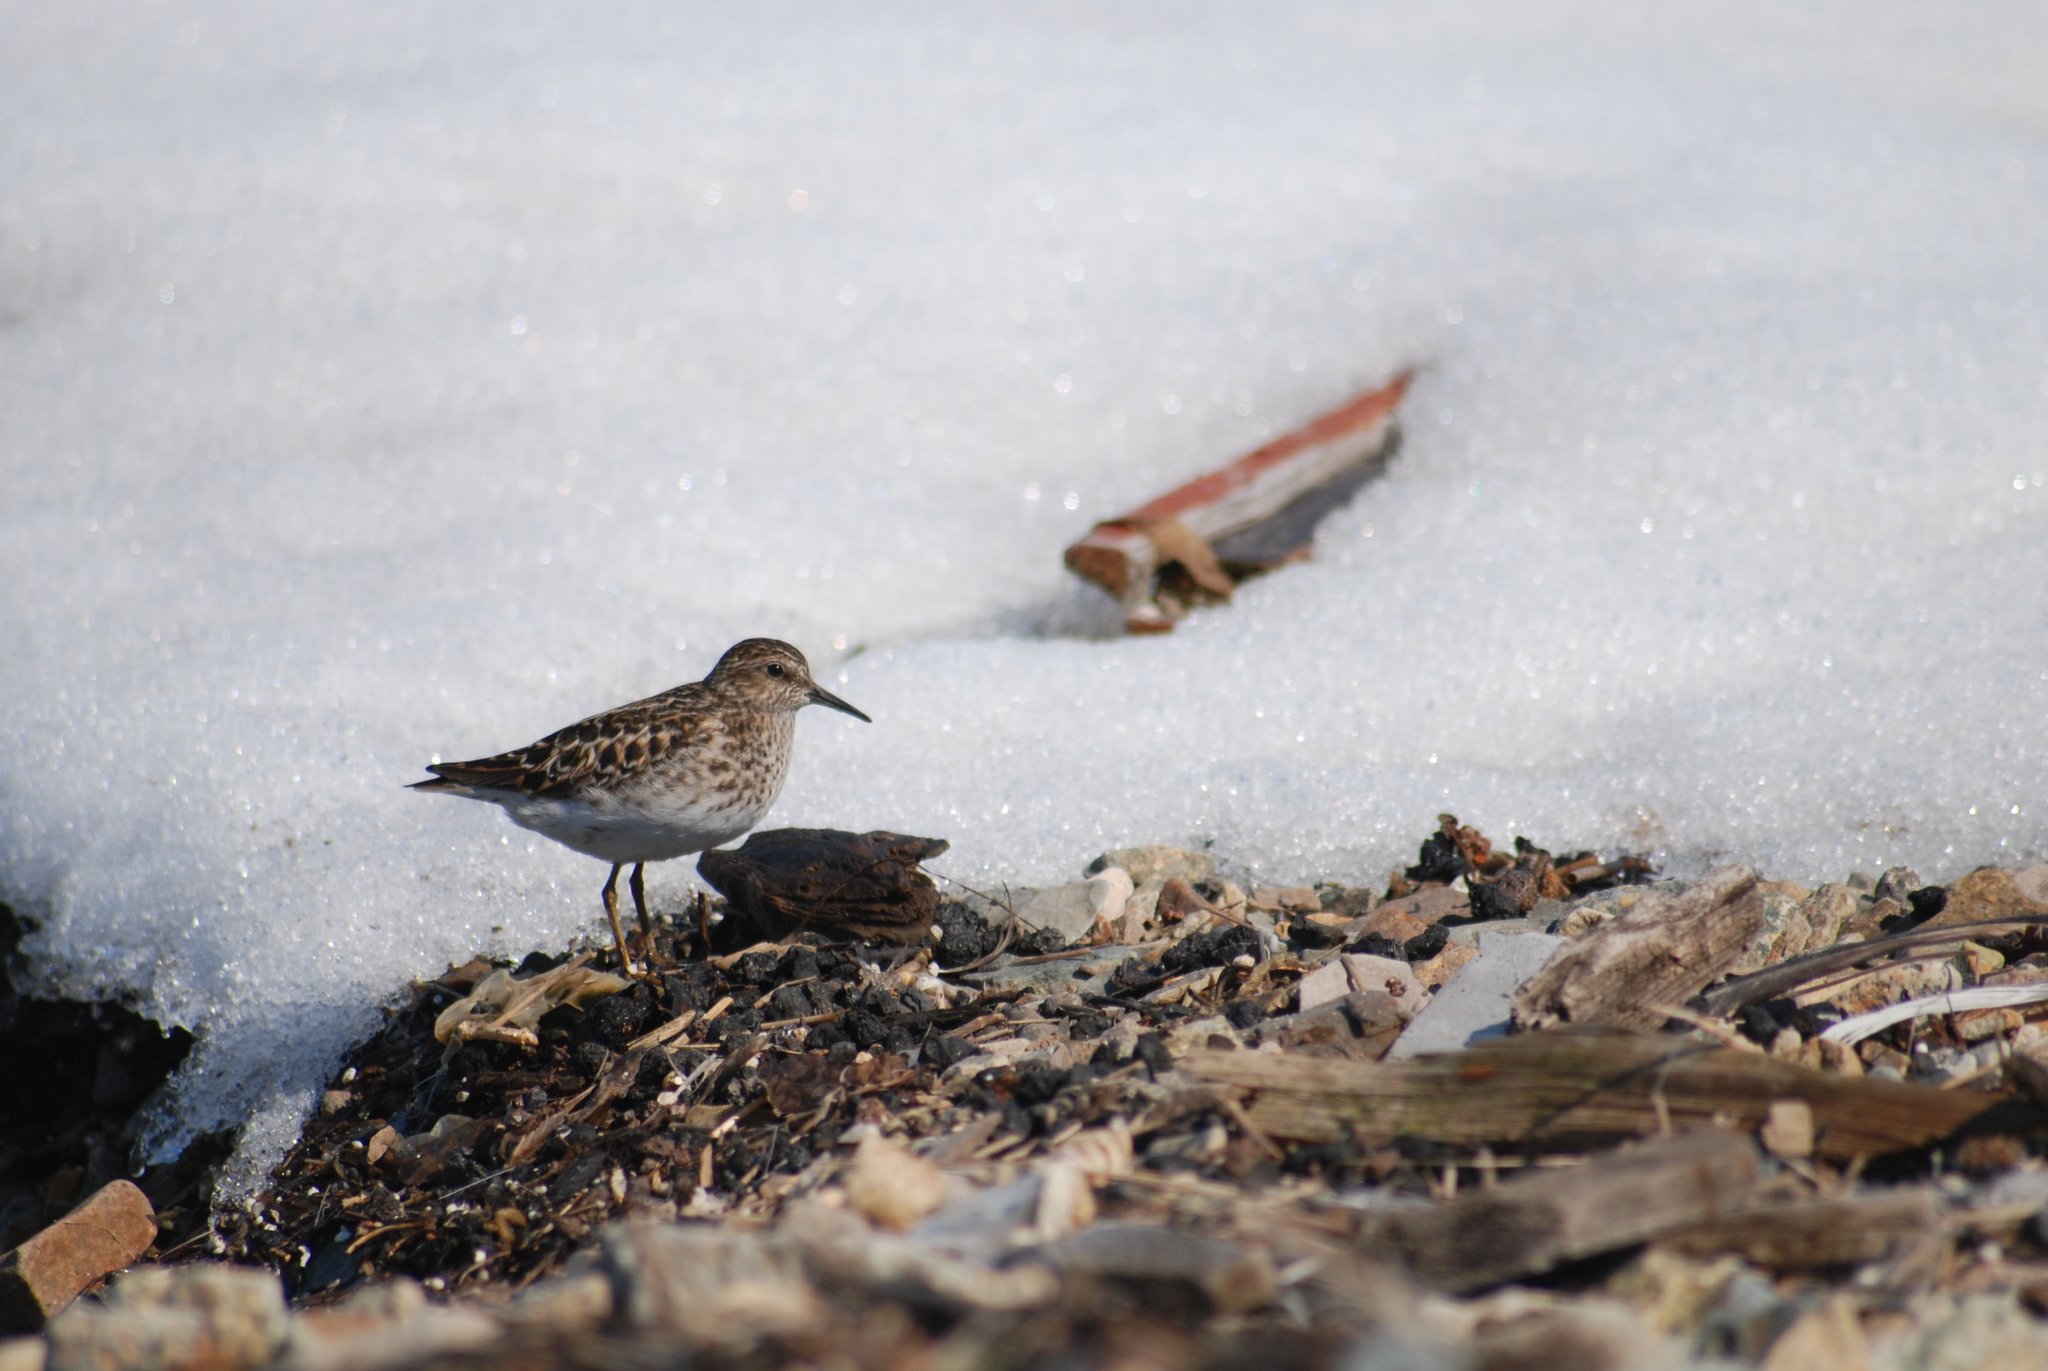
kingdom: Animalia
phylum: Chordata
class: Aves
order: Charadriiformes
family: Scolopacidae
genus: Calidris
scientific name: Calidris minutilla
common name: Least sandpiper
